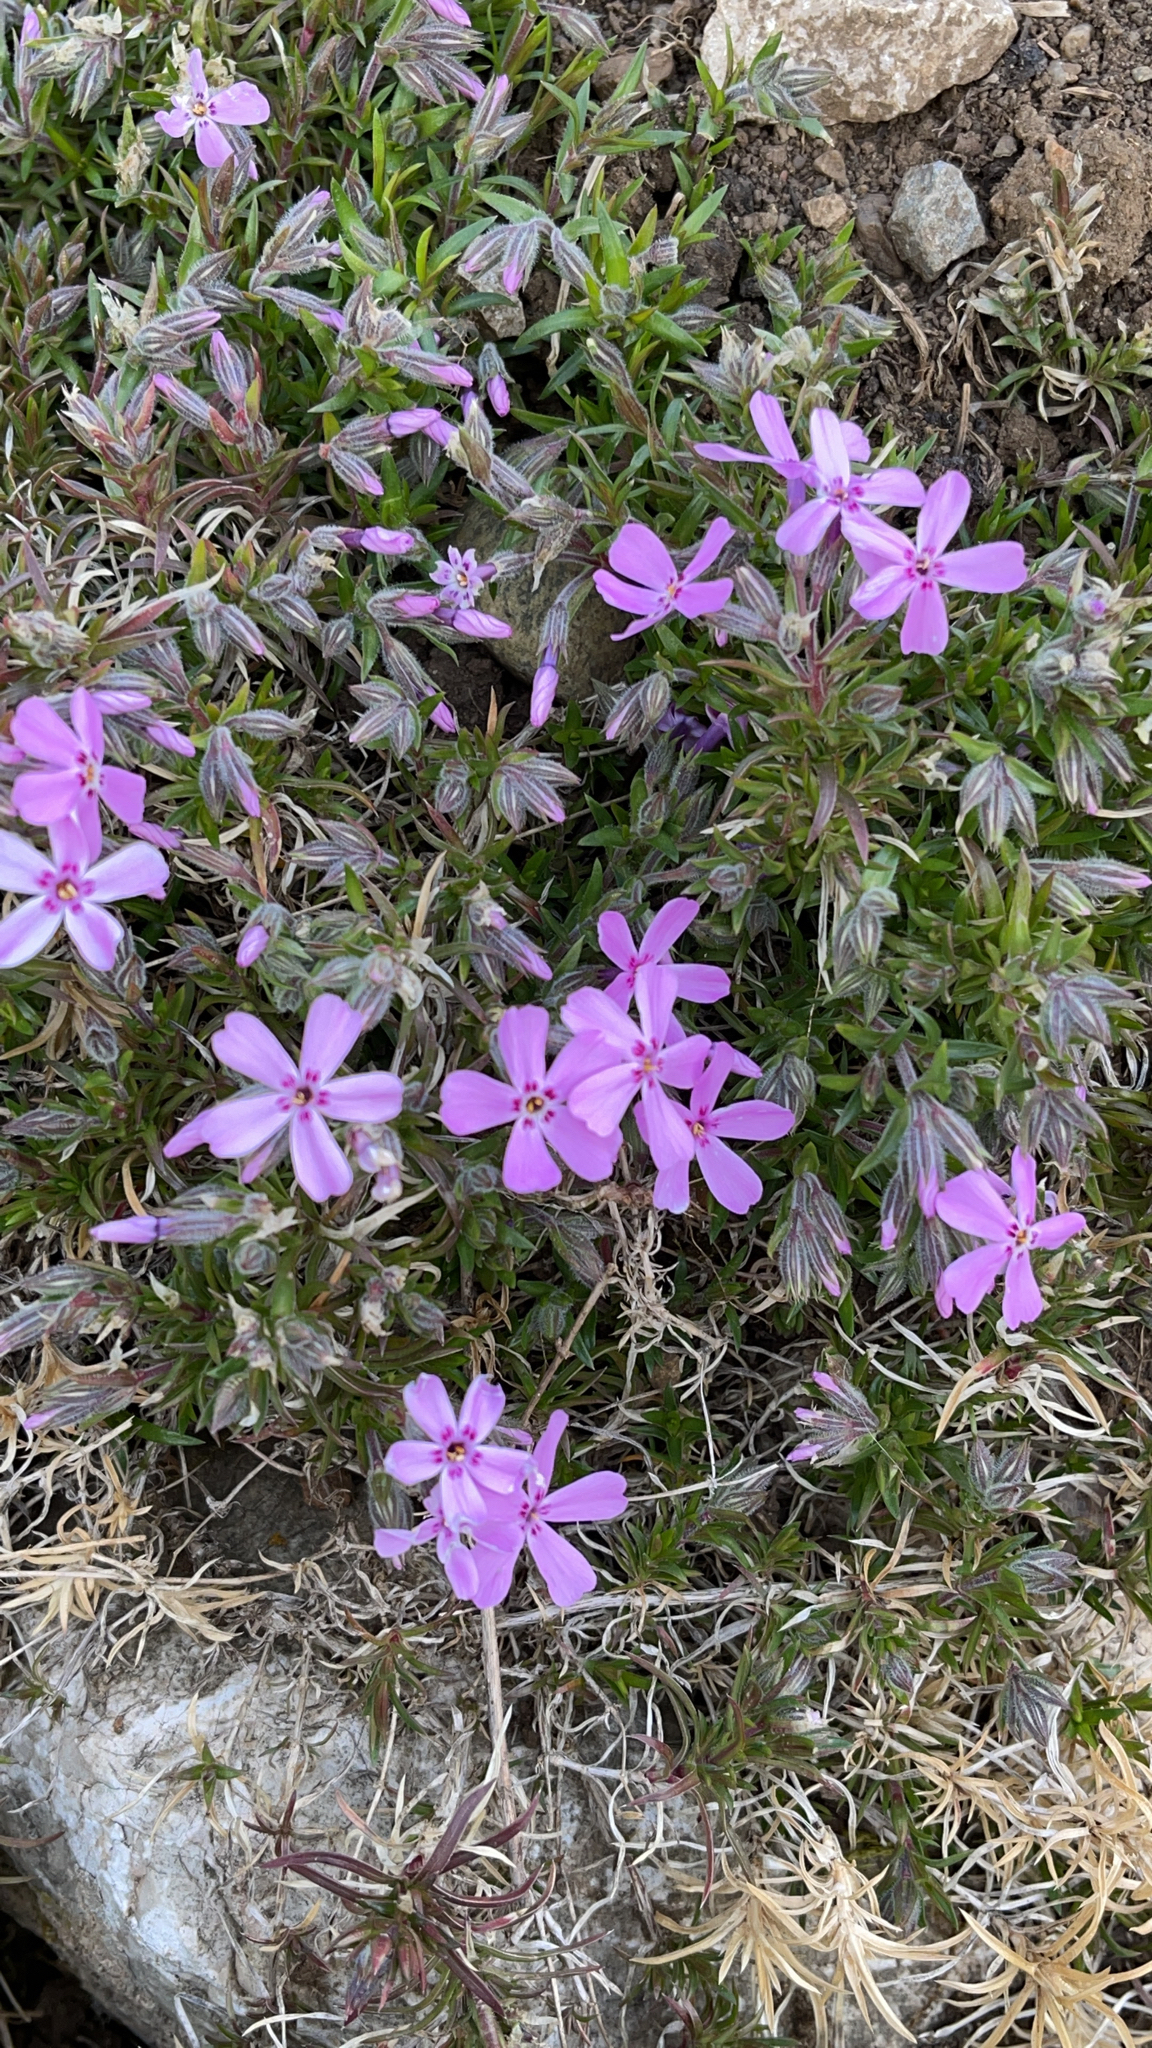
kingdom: Plantae
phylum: Tracheophyta
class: Magnoliopsida
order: Ericales
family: Polemoniaceae
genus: Phlox
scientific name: Phlox subulata
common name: Moss phlox
